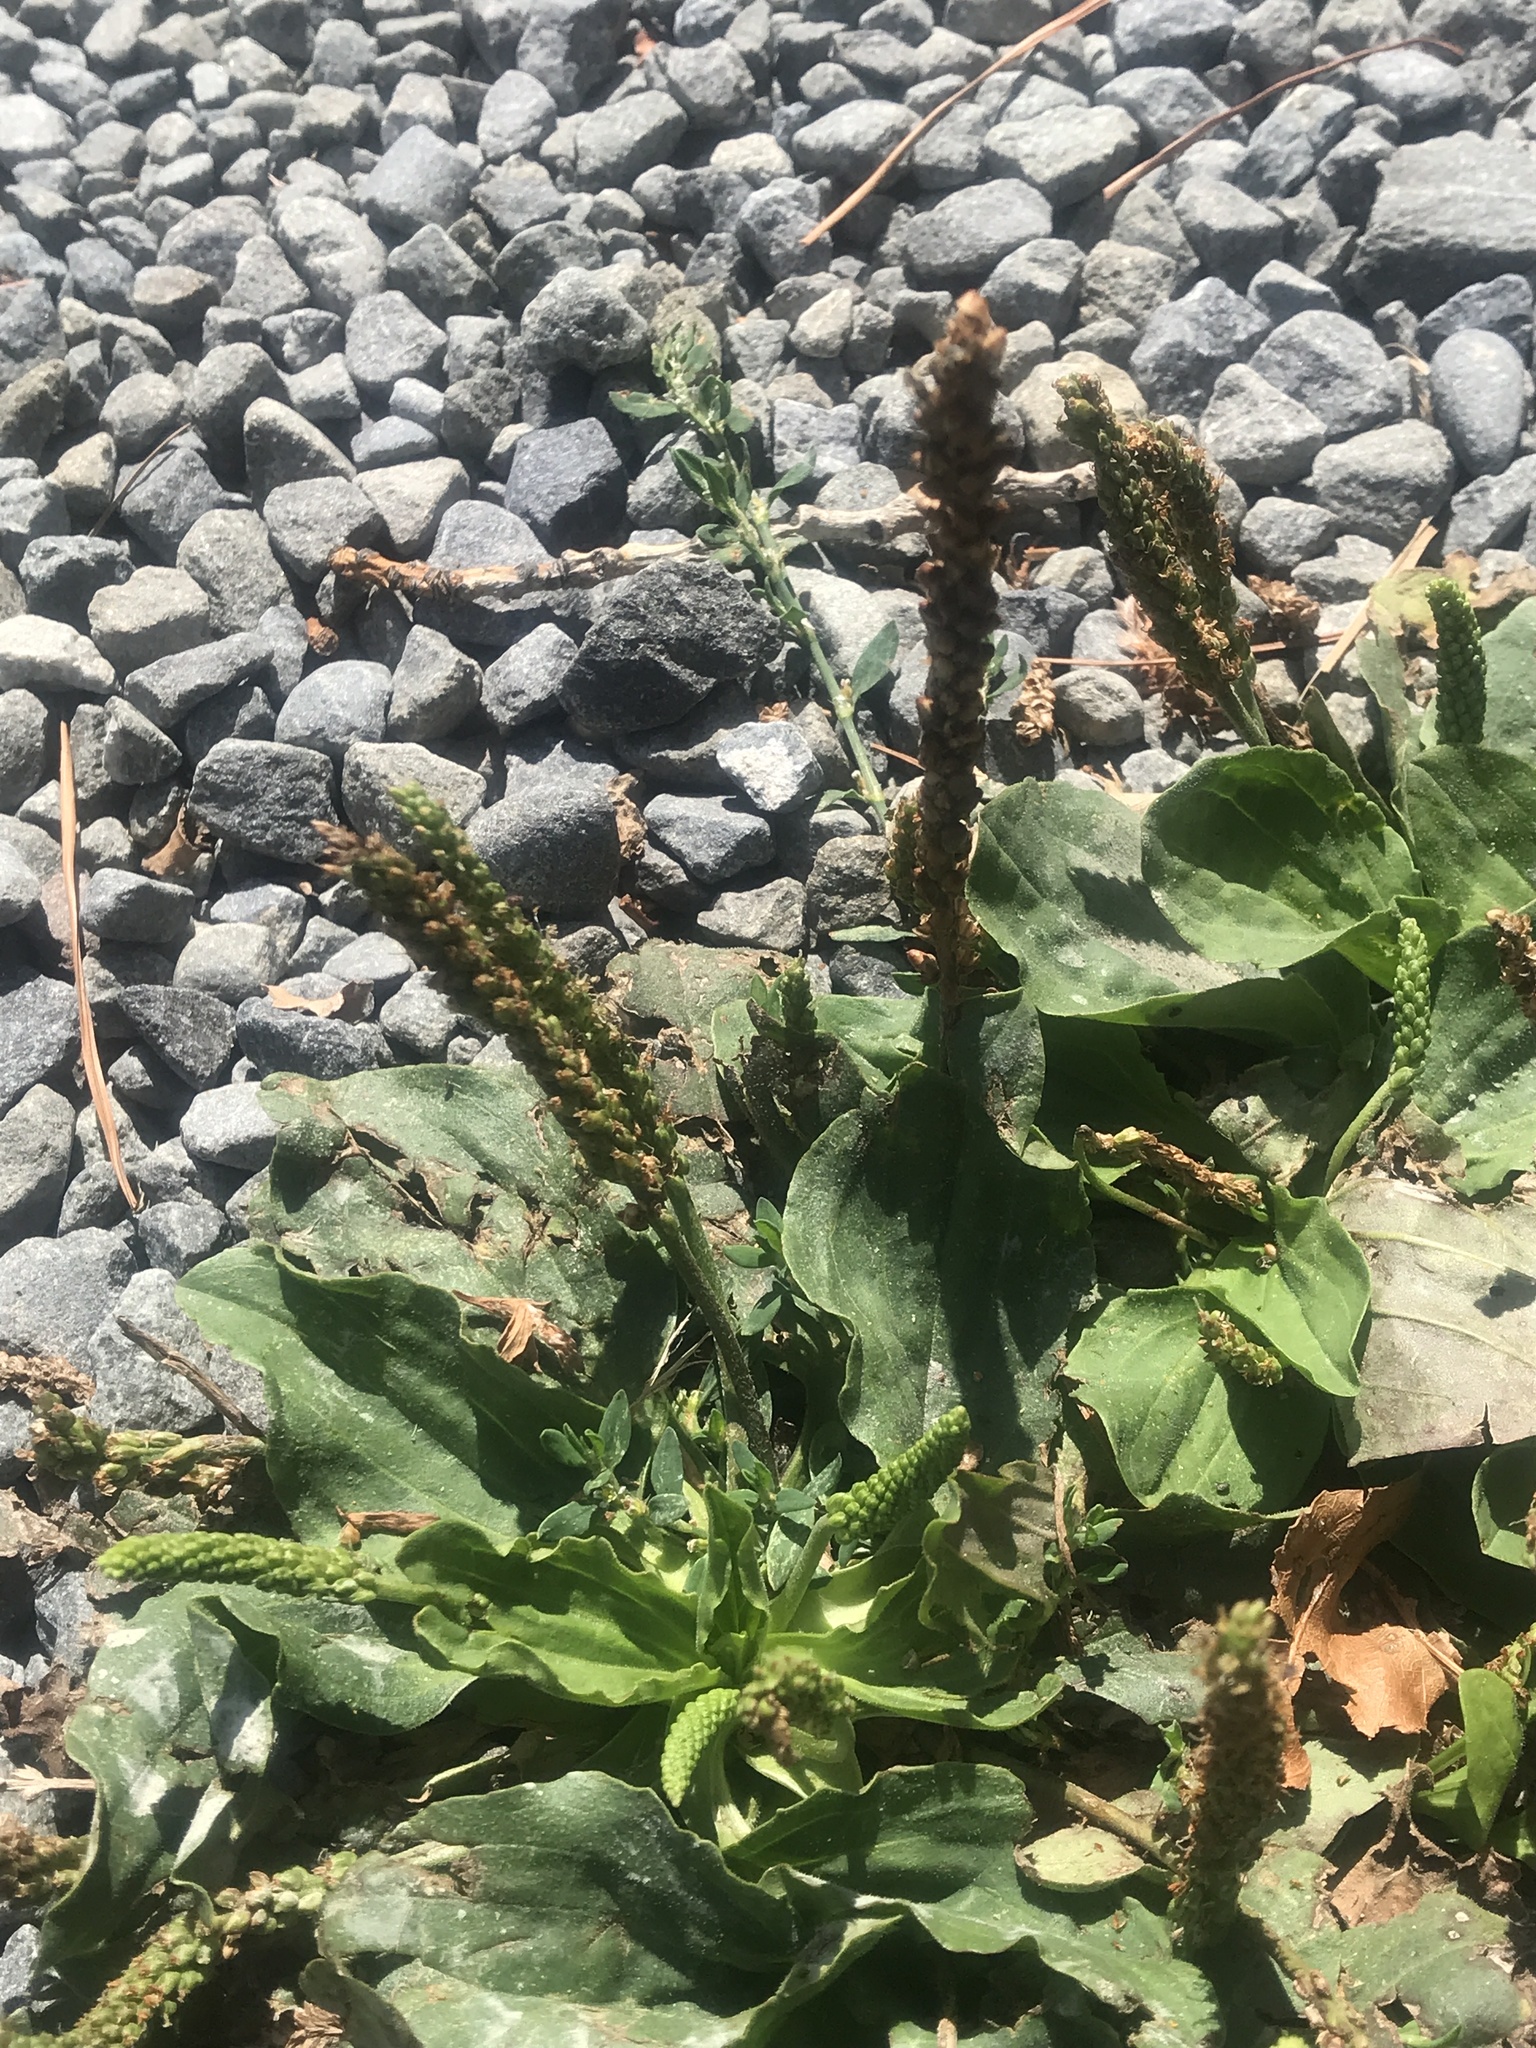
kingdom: Plantae
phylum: Tracheophyta
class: Magnoliopsida
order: Lamiales
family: Plantaginaceae
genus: Plantago
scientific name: Plantago major
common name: Common plantain
